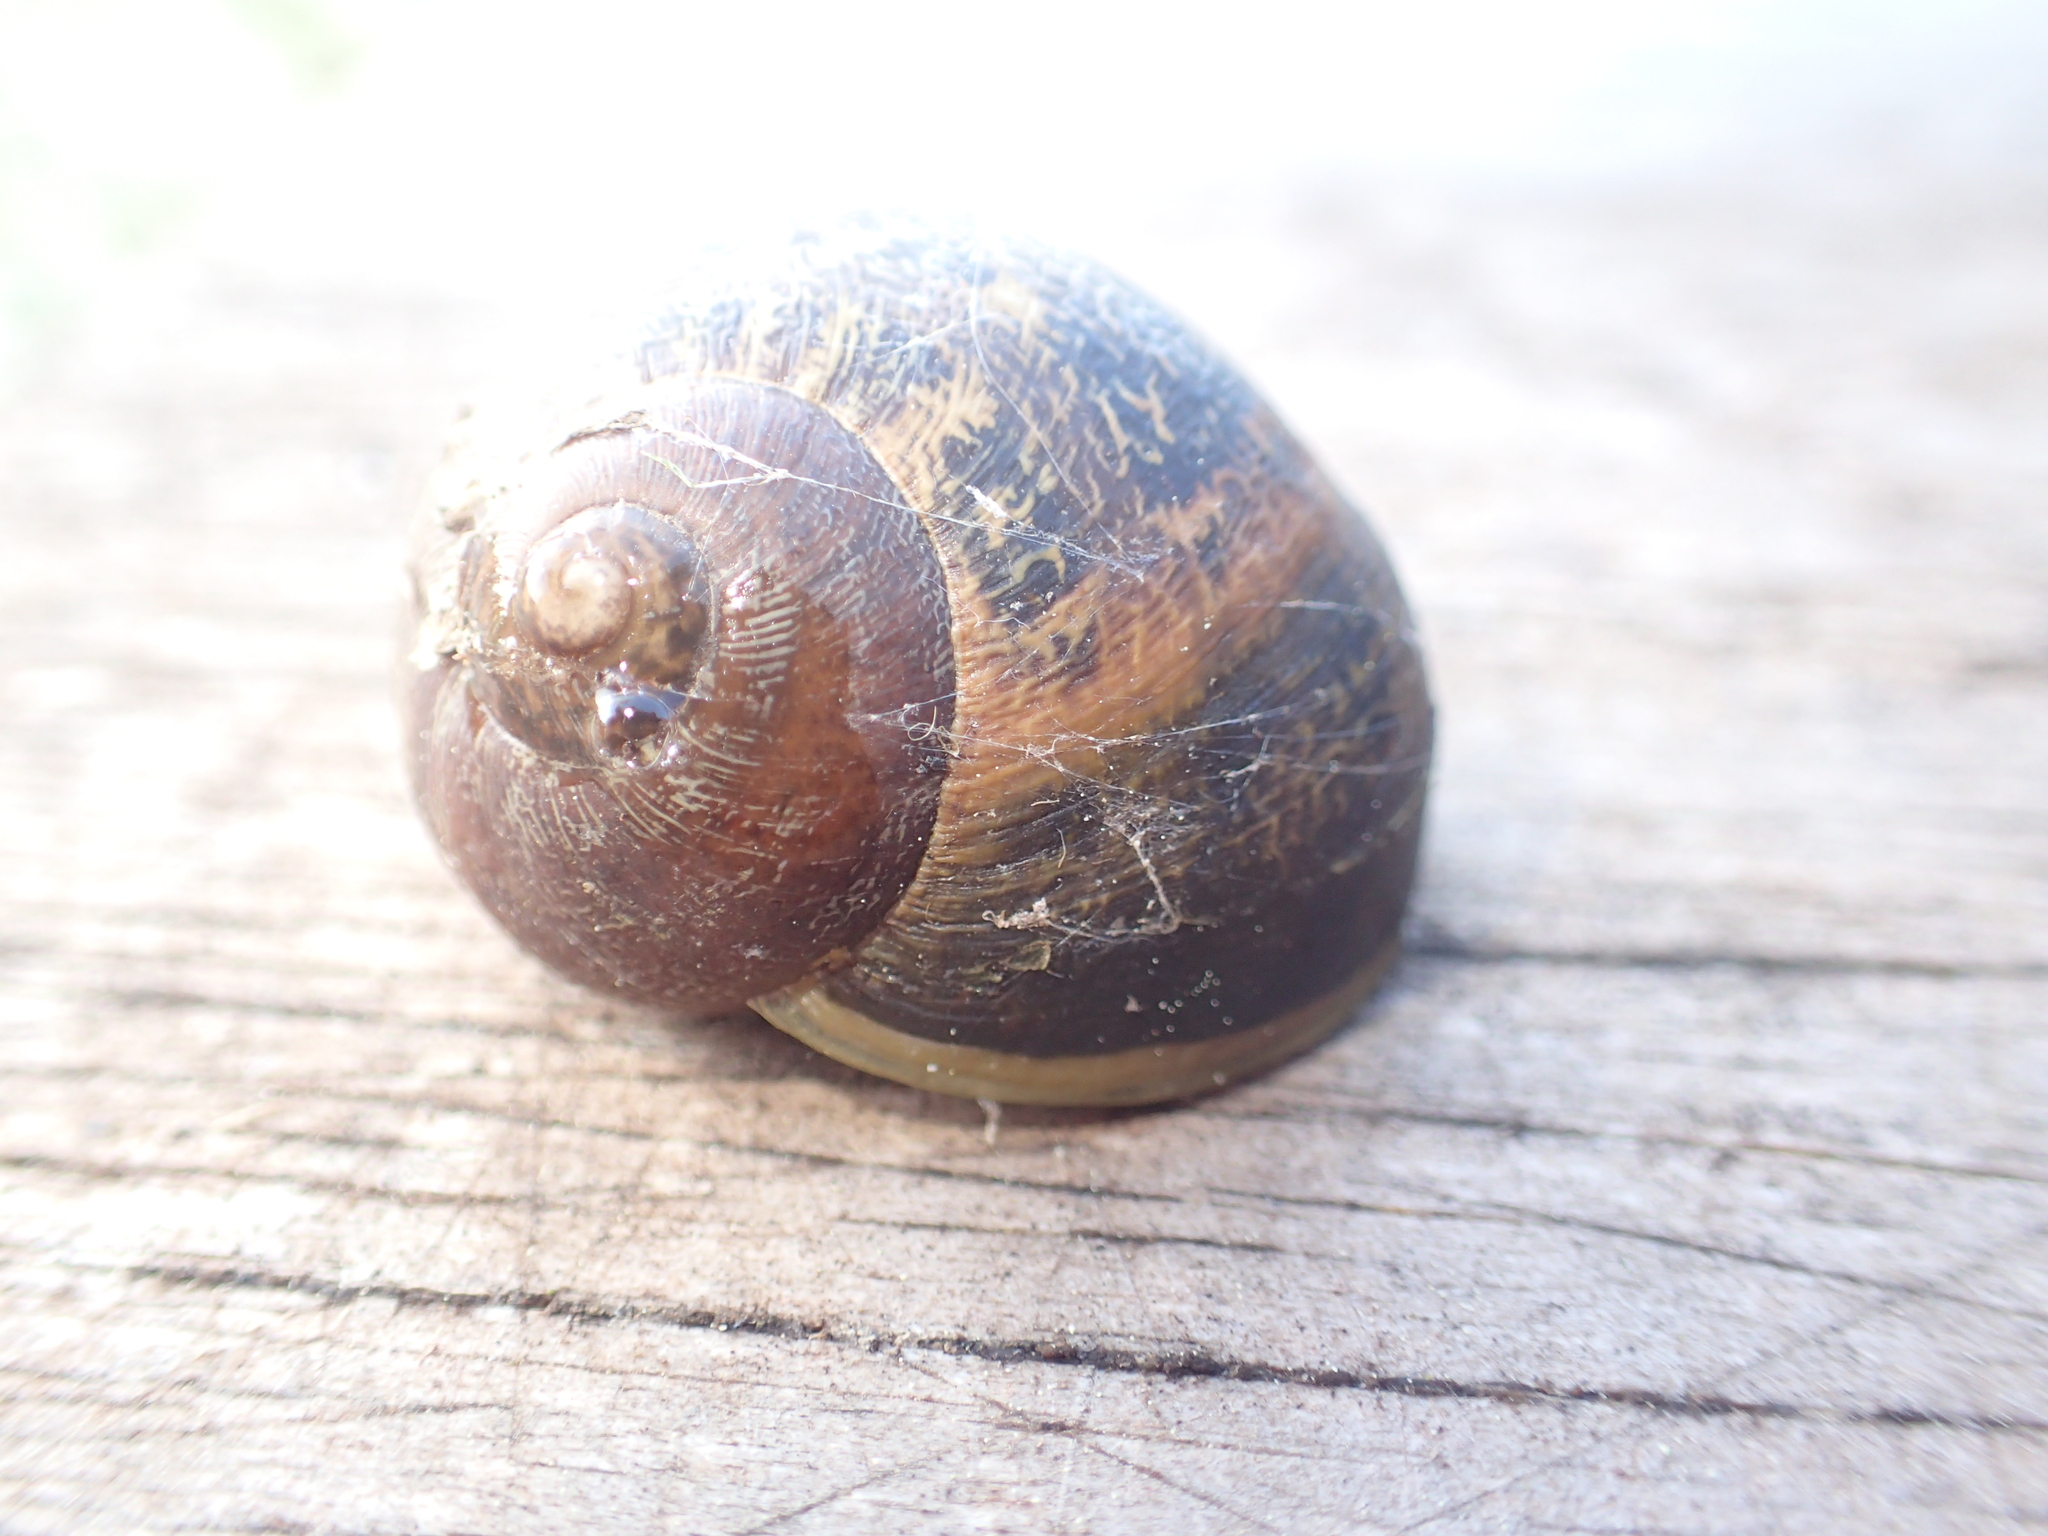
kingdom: Animalia
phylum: Mollusca
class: Gastropoda
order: Stylommatophora
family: Helicidae
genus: Cornu
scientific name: Cornu aspersum
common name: Brown garden snail
